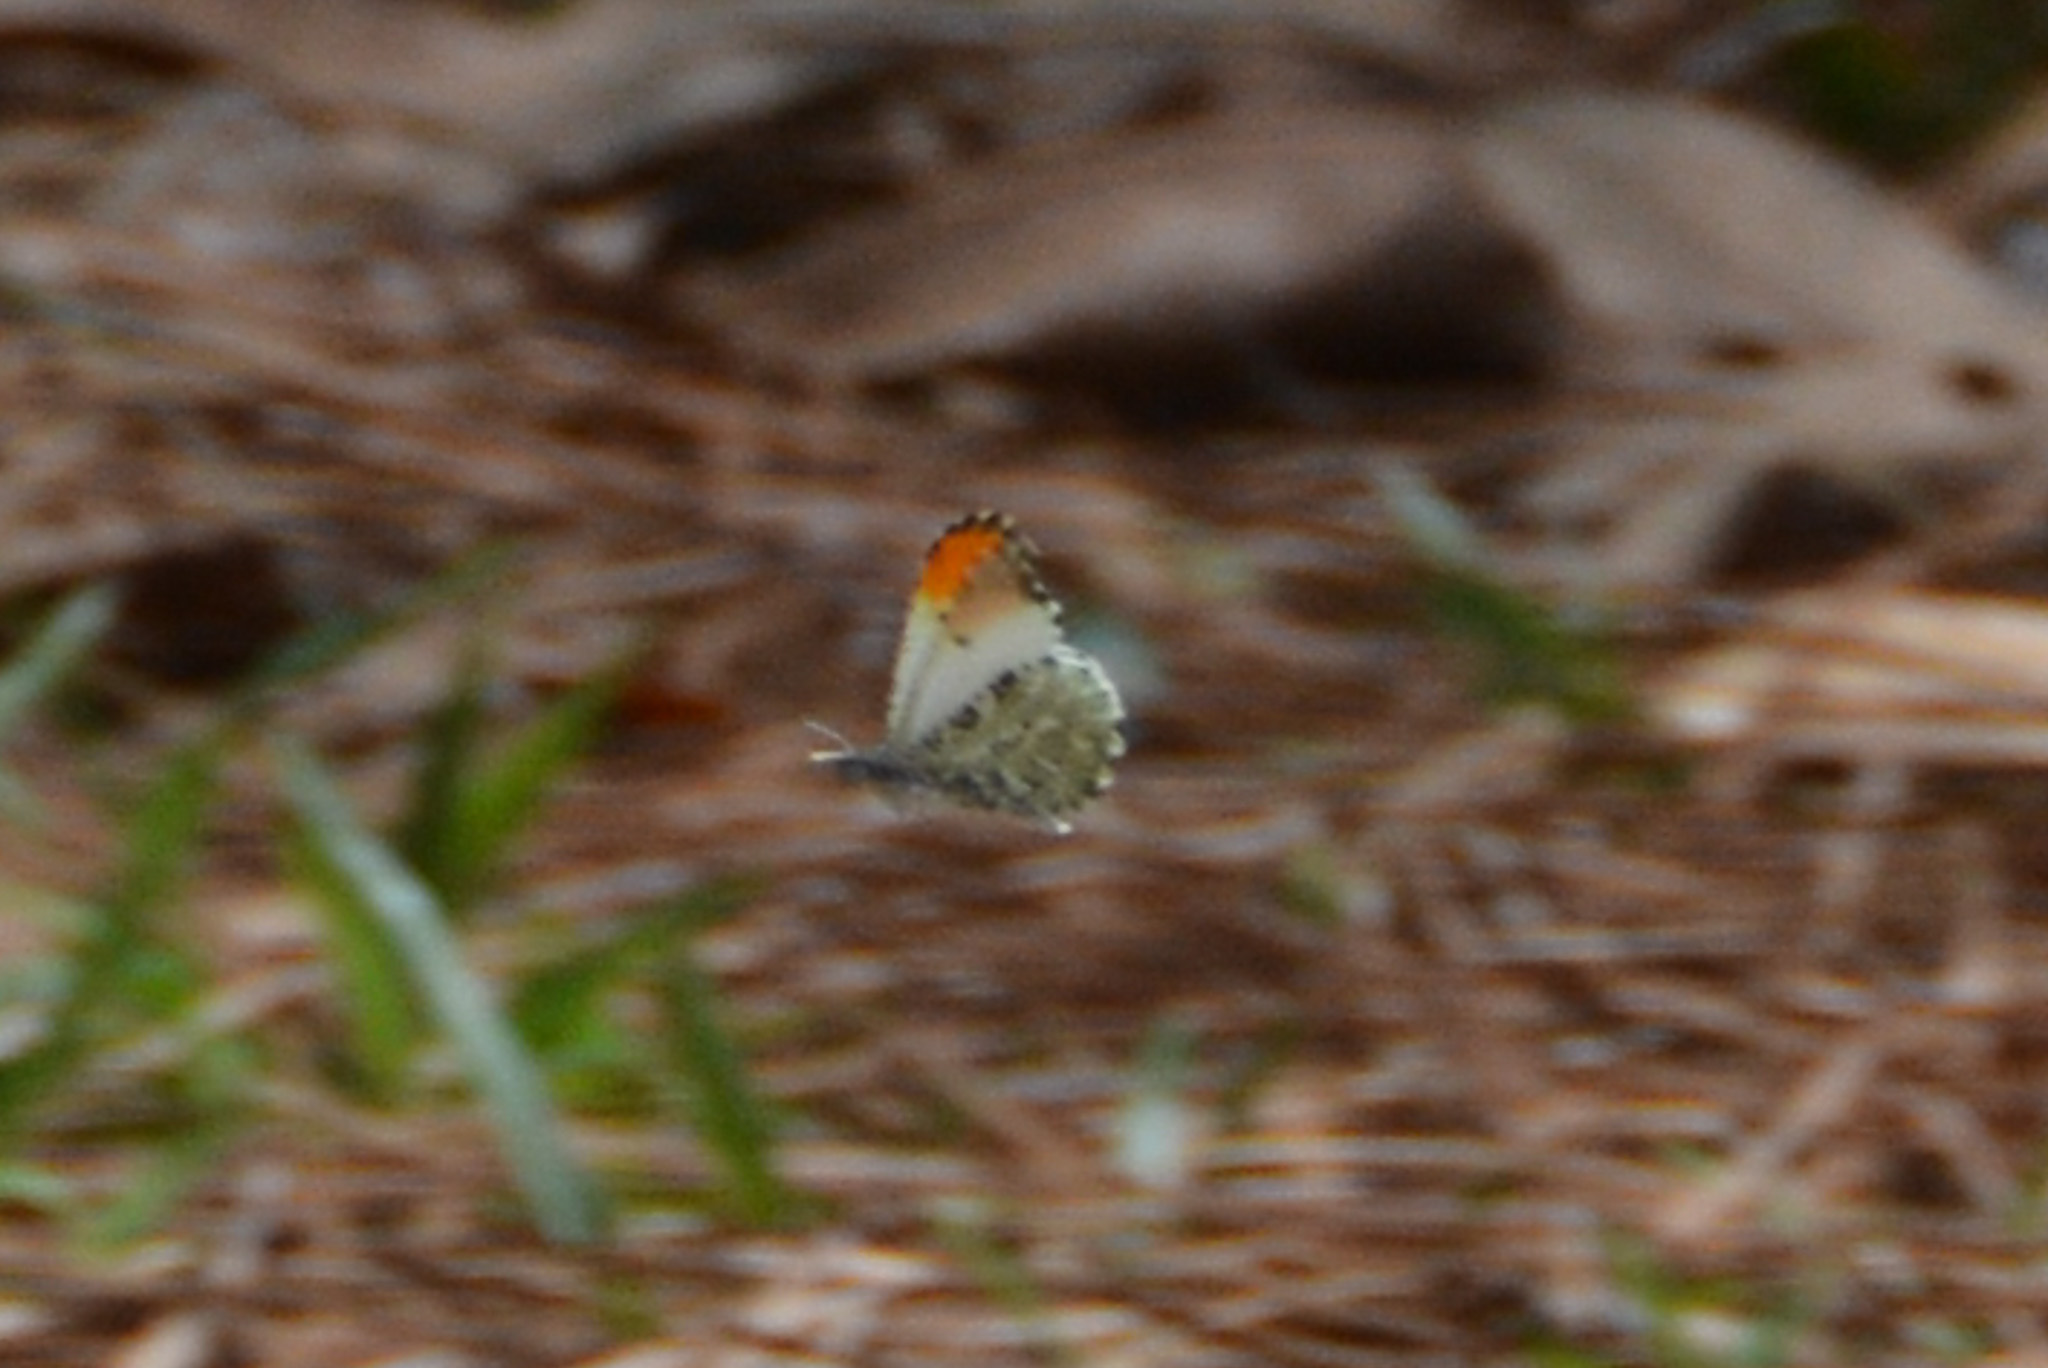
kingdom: Animalia
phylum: Arthropoda
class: Insecta
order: Lepidoptera
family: Pieridae
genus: Anthocharis
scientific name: Anthocharis midea
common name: Falcate orangetip
